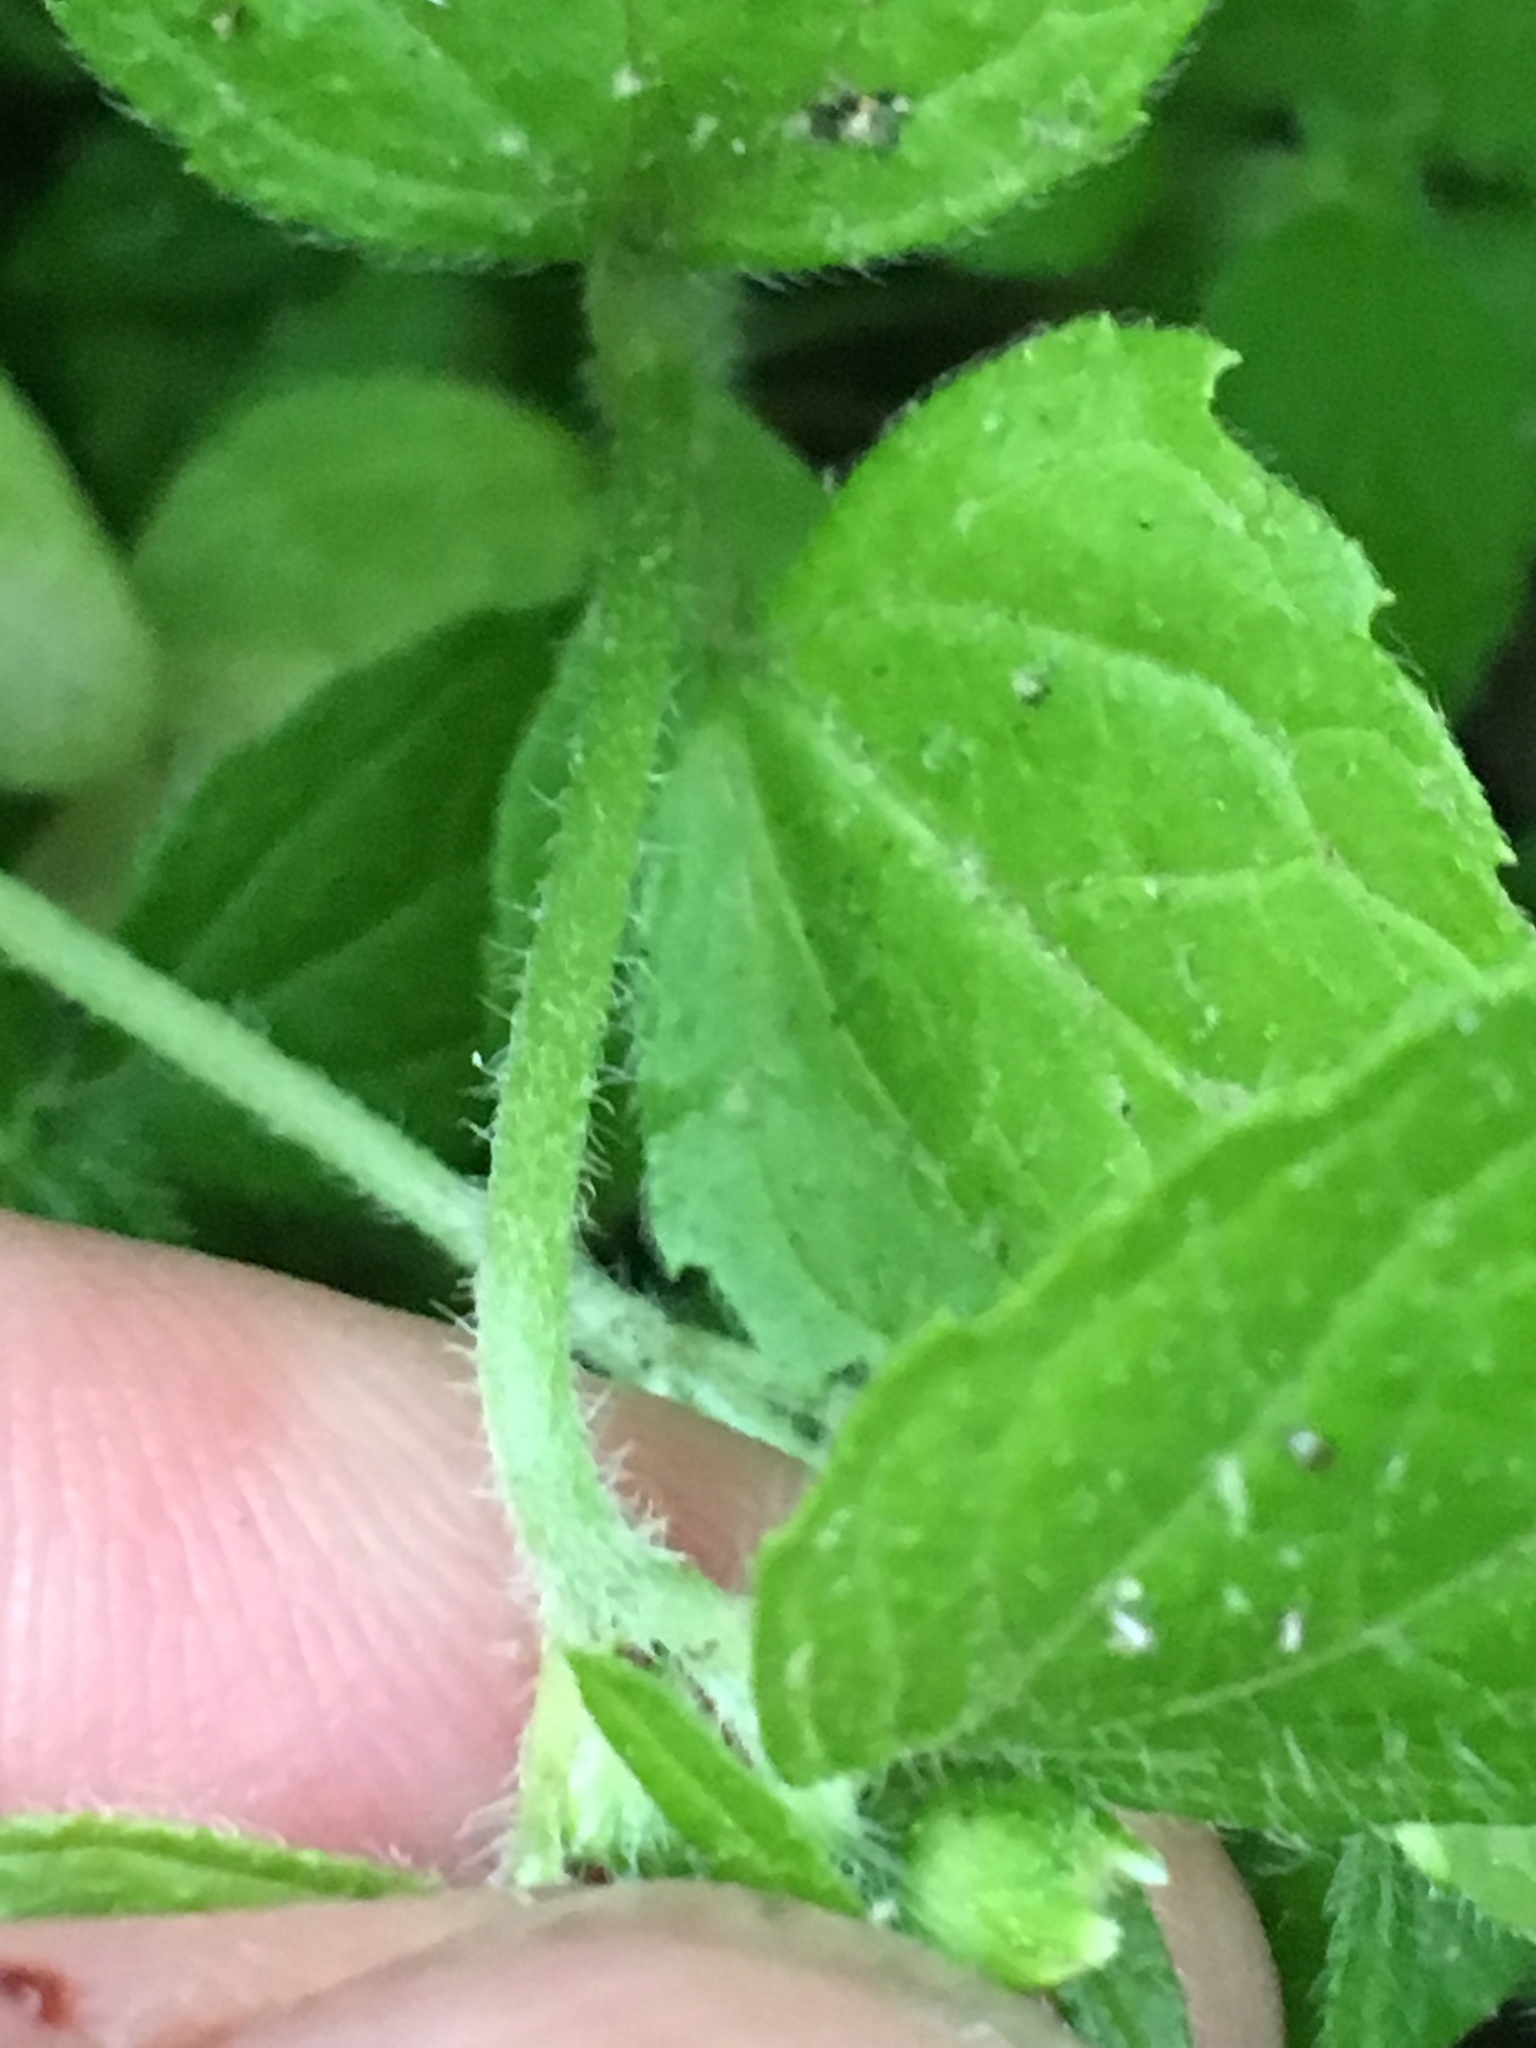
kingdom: Plantae
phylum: Tracheophyta
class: Magnoliopsida
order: Asterales
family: Asteraceae
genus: Galinsoga
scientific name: Galinsoga quadriradiata
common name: Shaggy soldier
